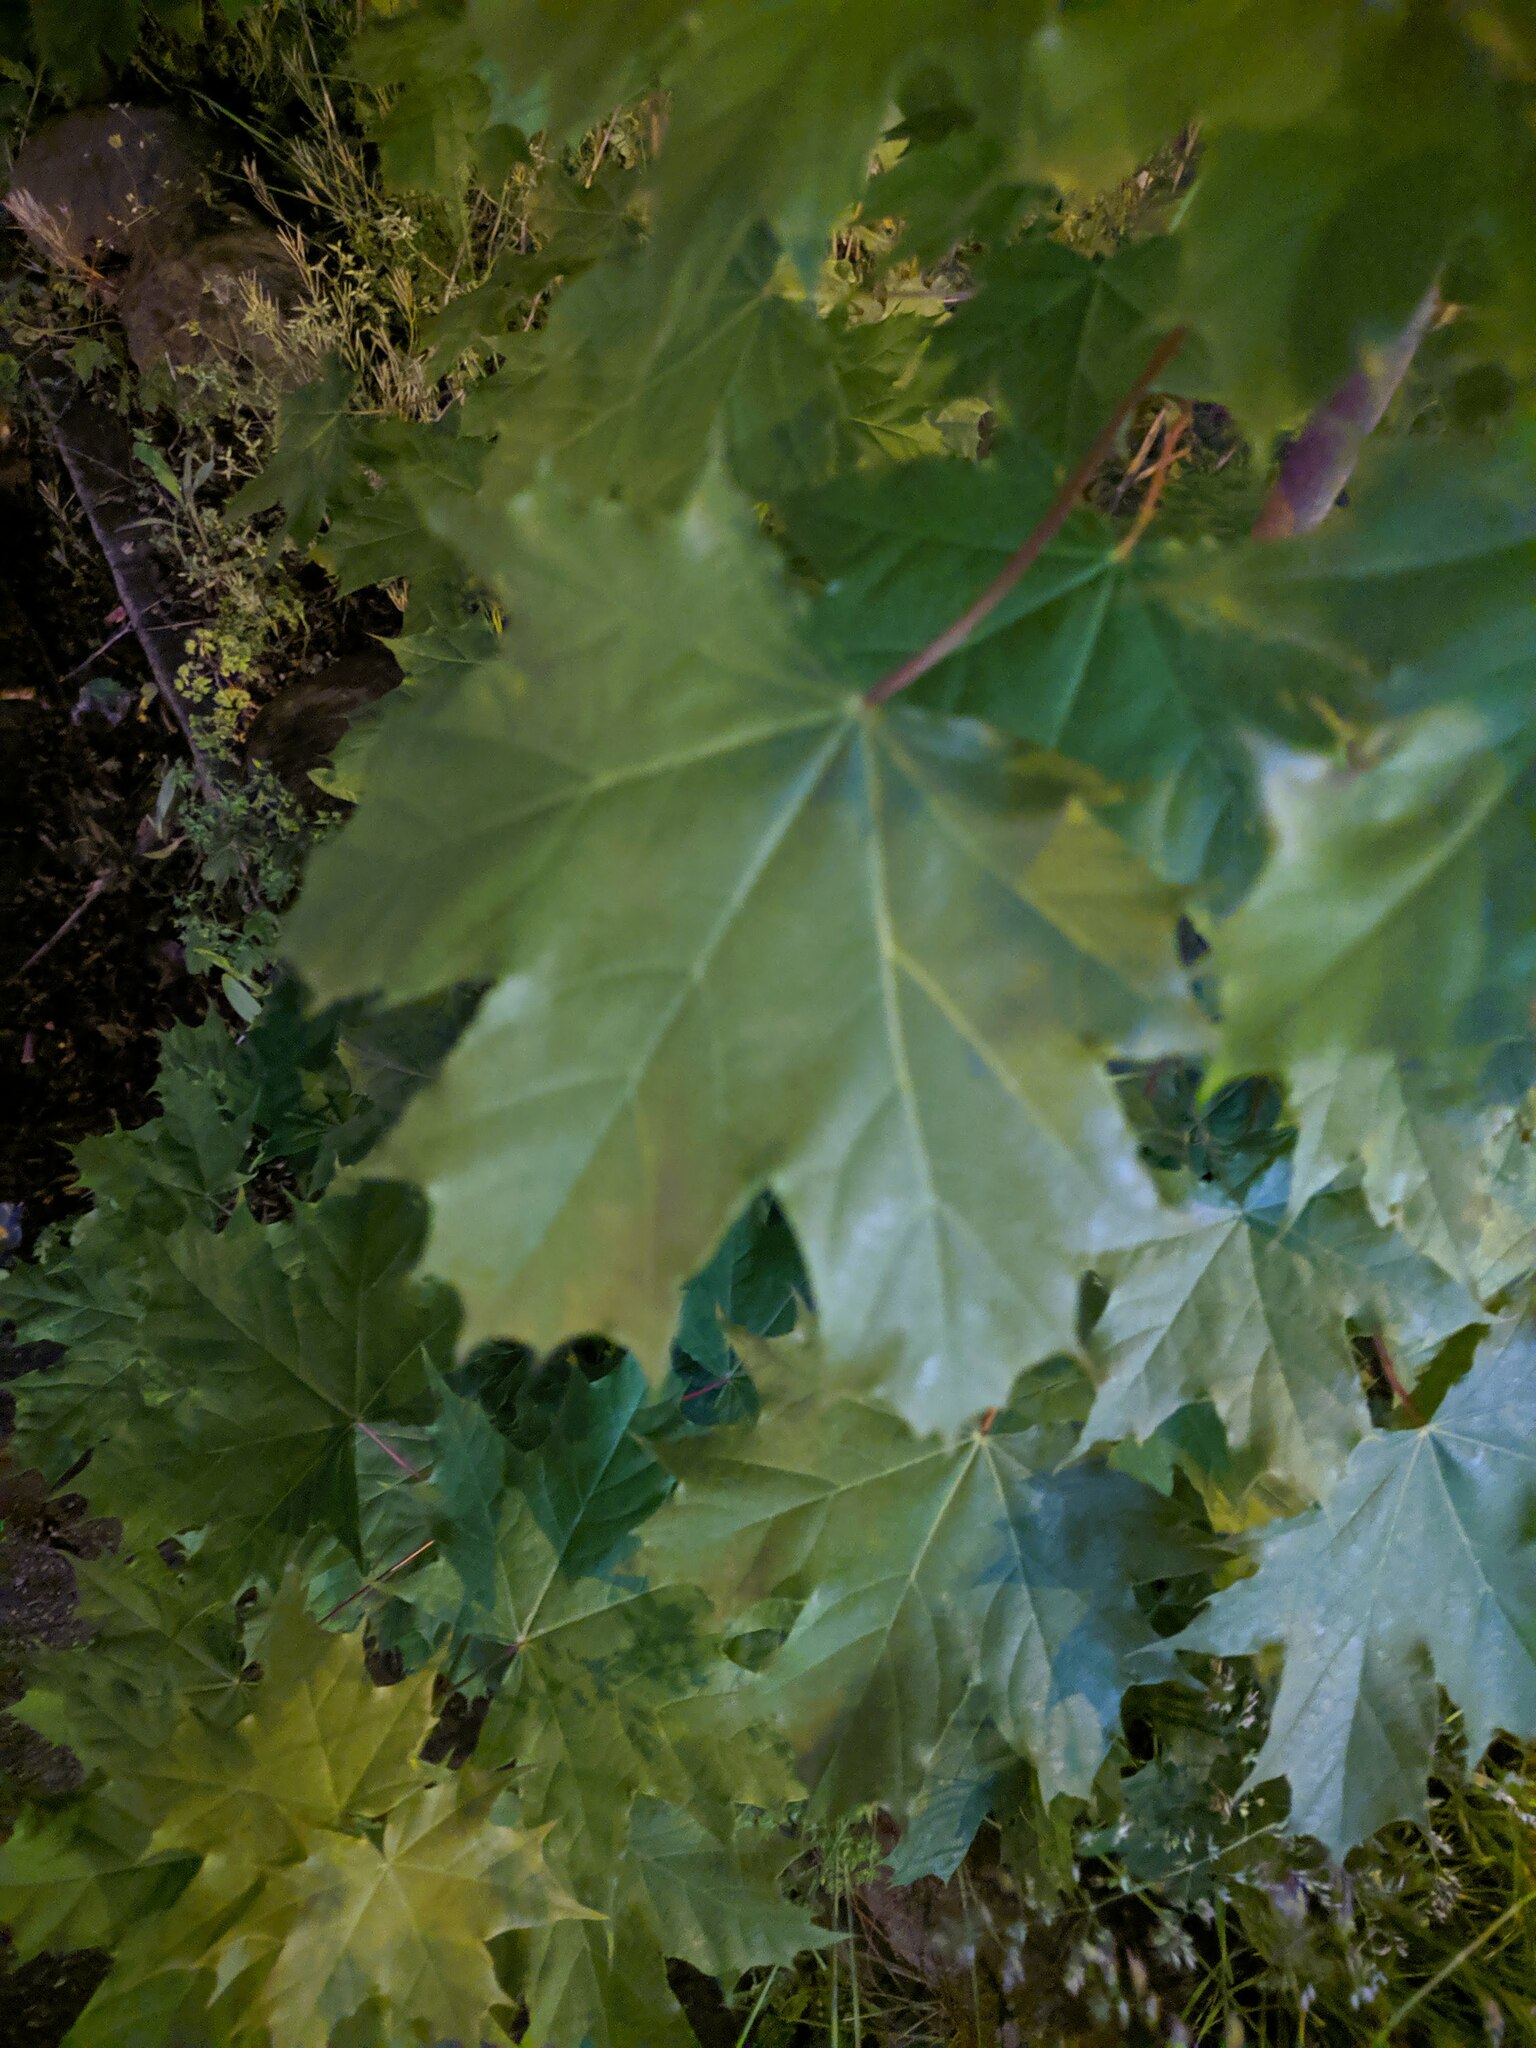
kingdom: Plantae
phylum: Tracheophyta
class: Magnoliopsida
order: Sapindales
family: Sapindaceae
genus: Acer
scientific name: Acer platanoides
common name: Norway maple
